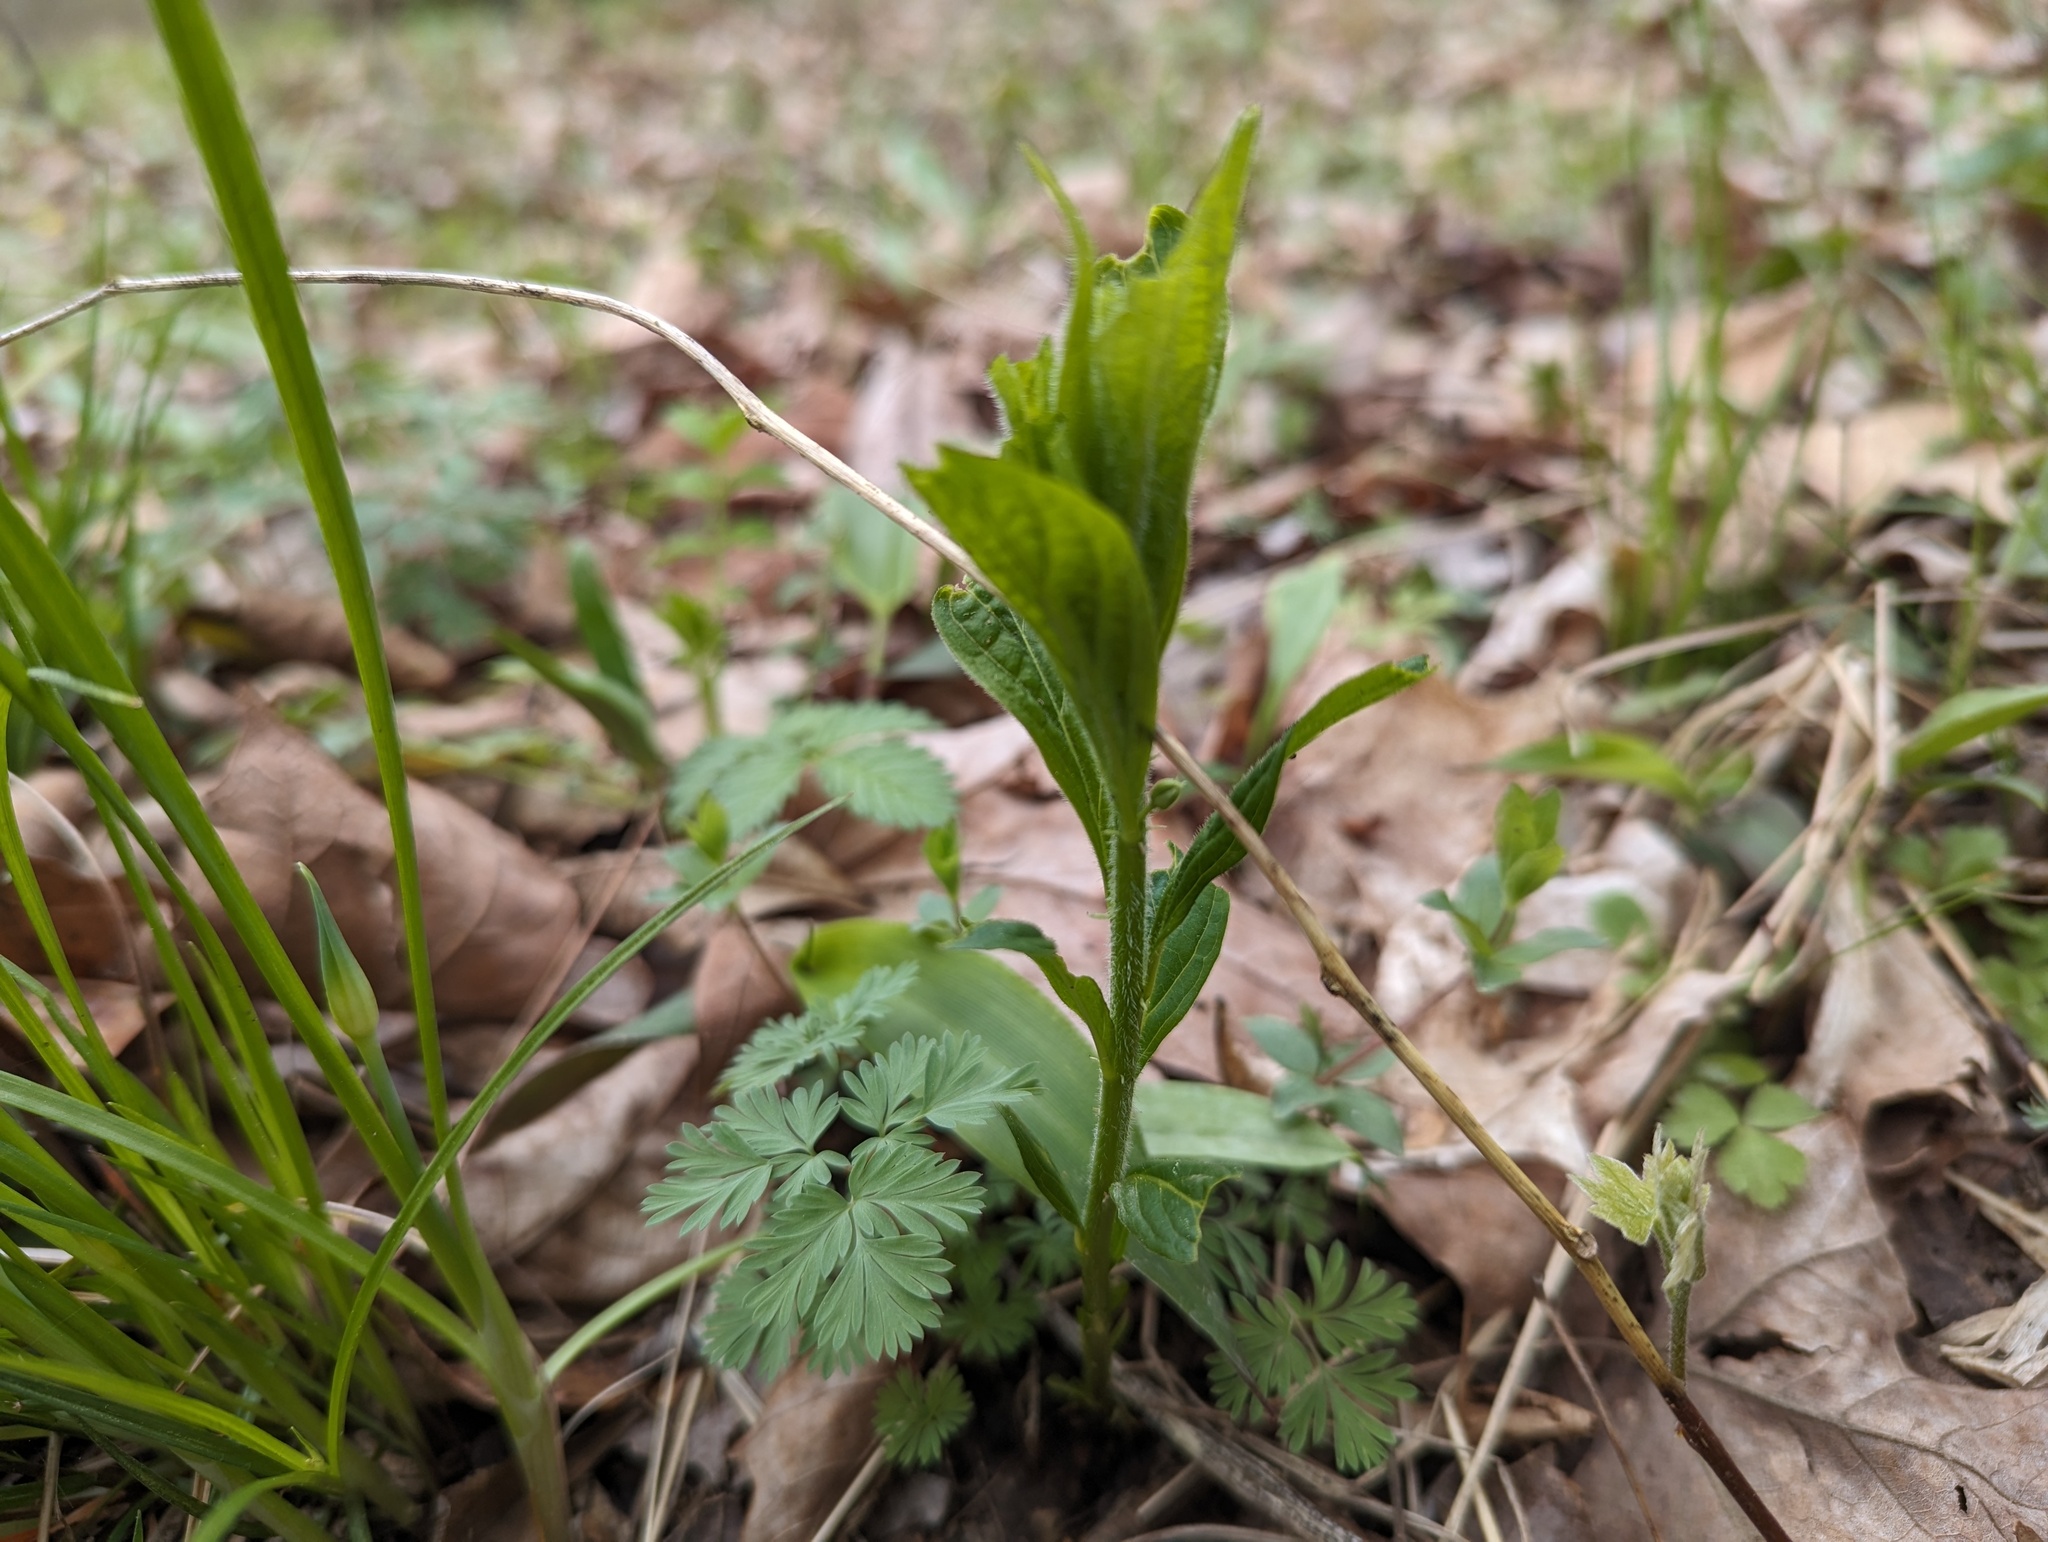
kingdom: Plantae
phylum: Tracheophyta
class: Magnoliopsida
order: Malpighiales
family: Violaceae
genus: Cubelium
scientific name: Cubelium concolor
